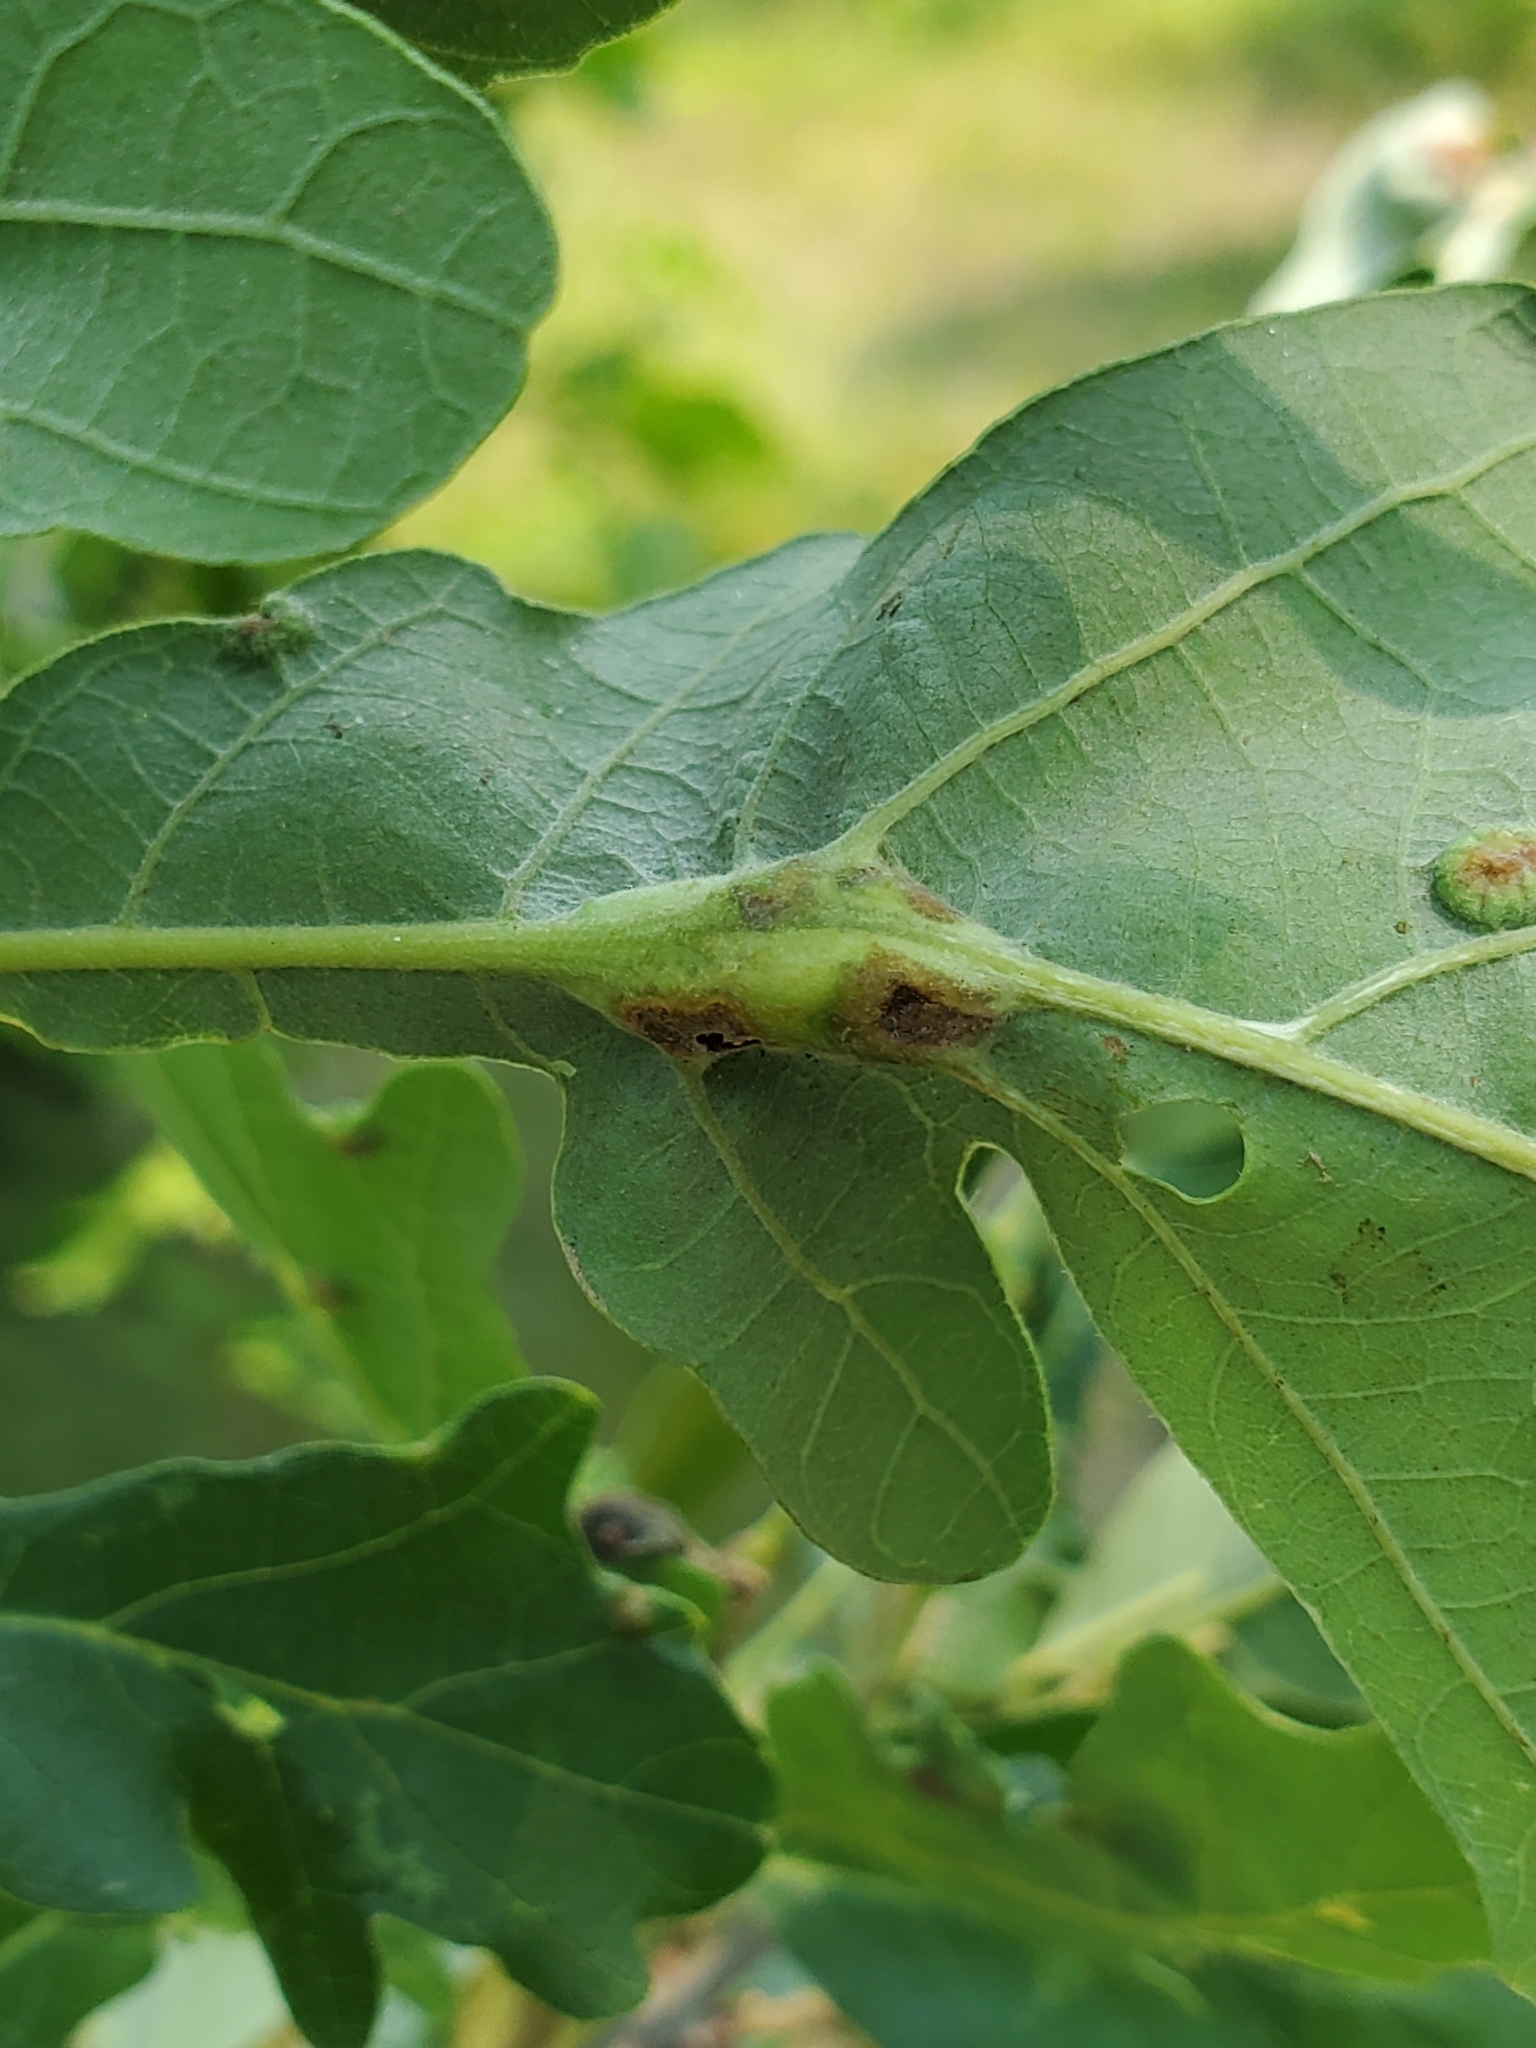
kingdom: Animalia
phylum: Arthropoda
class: Insecta
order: Hymenoptera
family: Cynipidae
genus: Bassettia
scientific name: Bassettia flavipes
